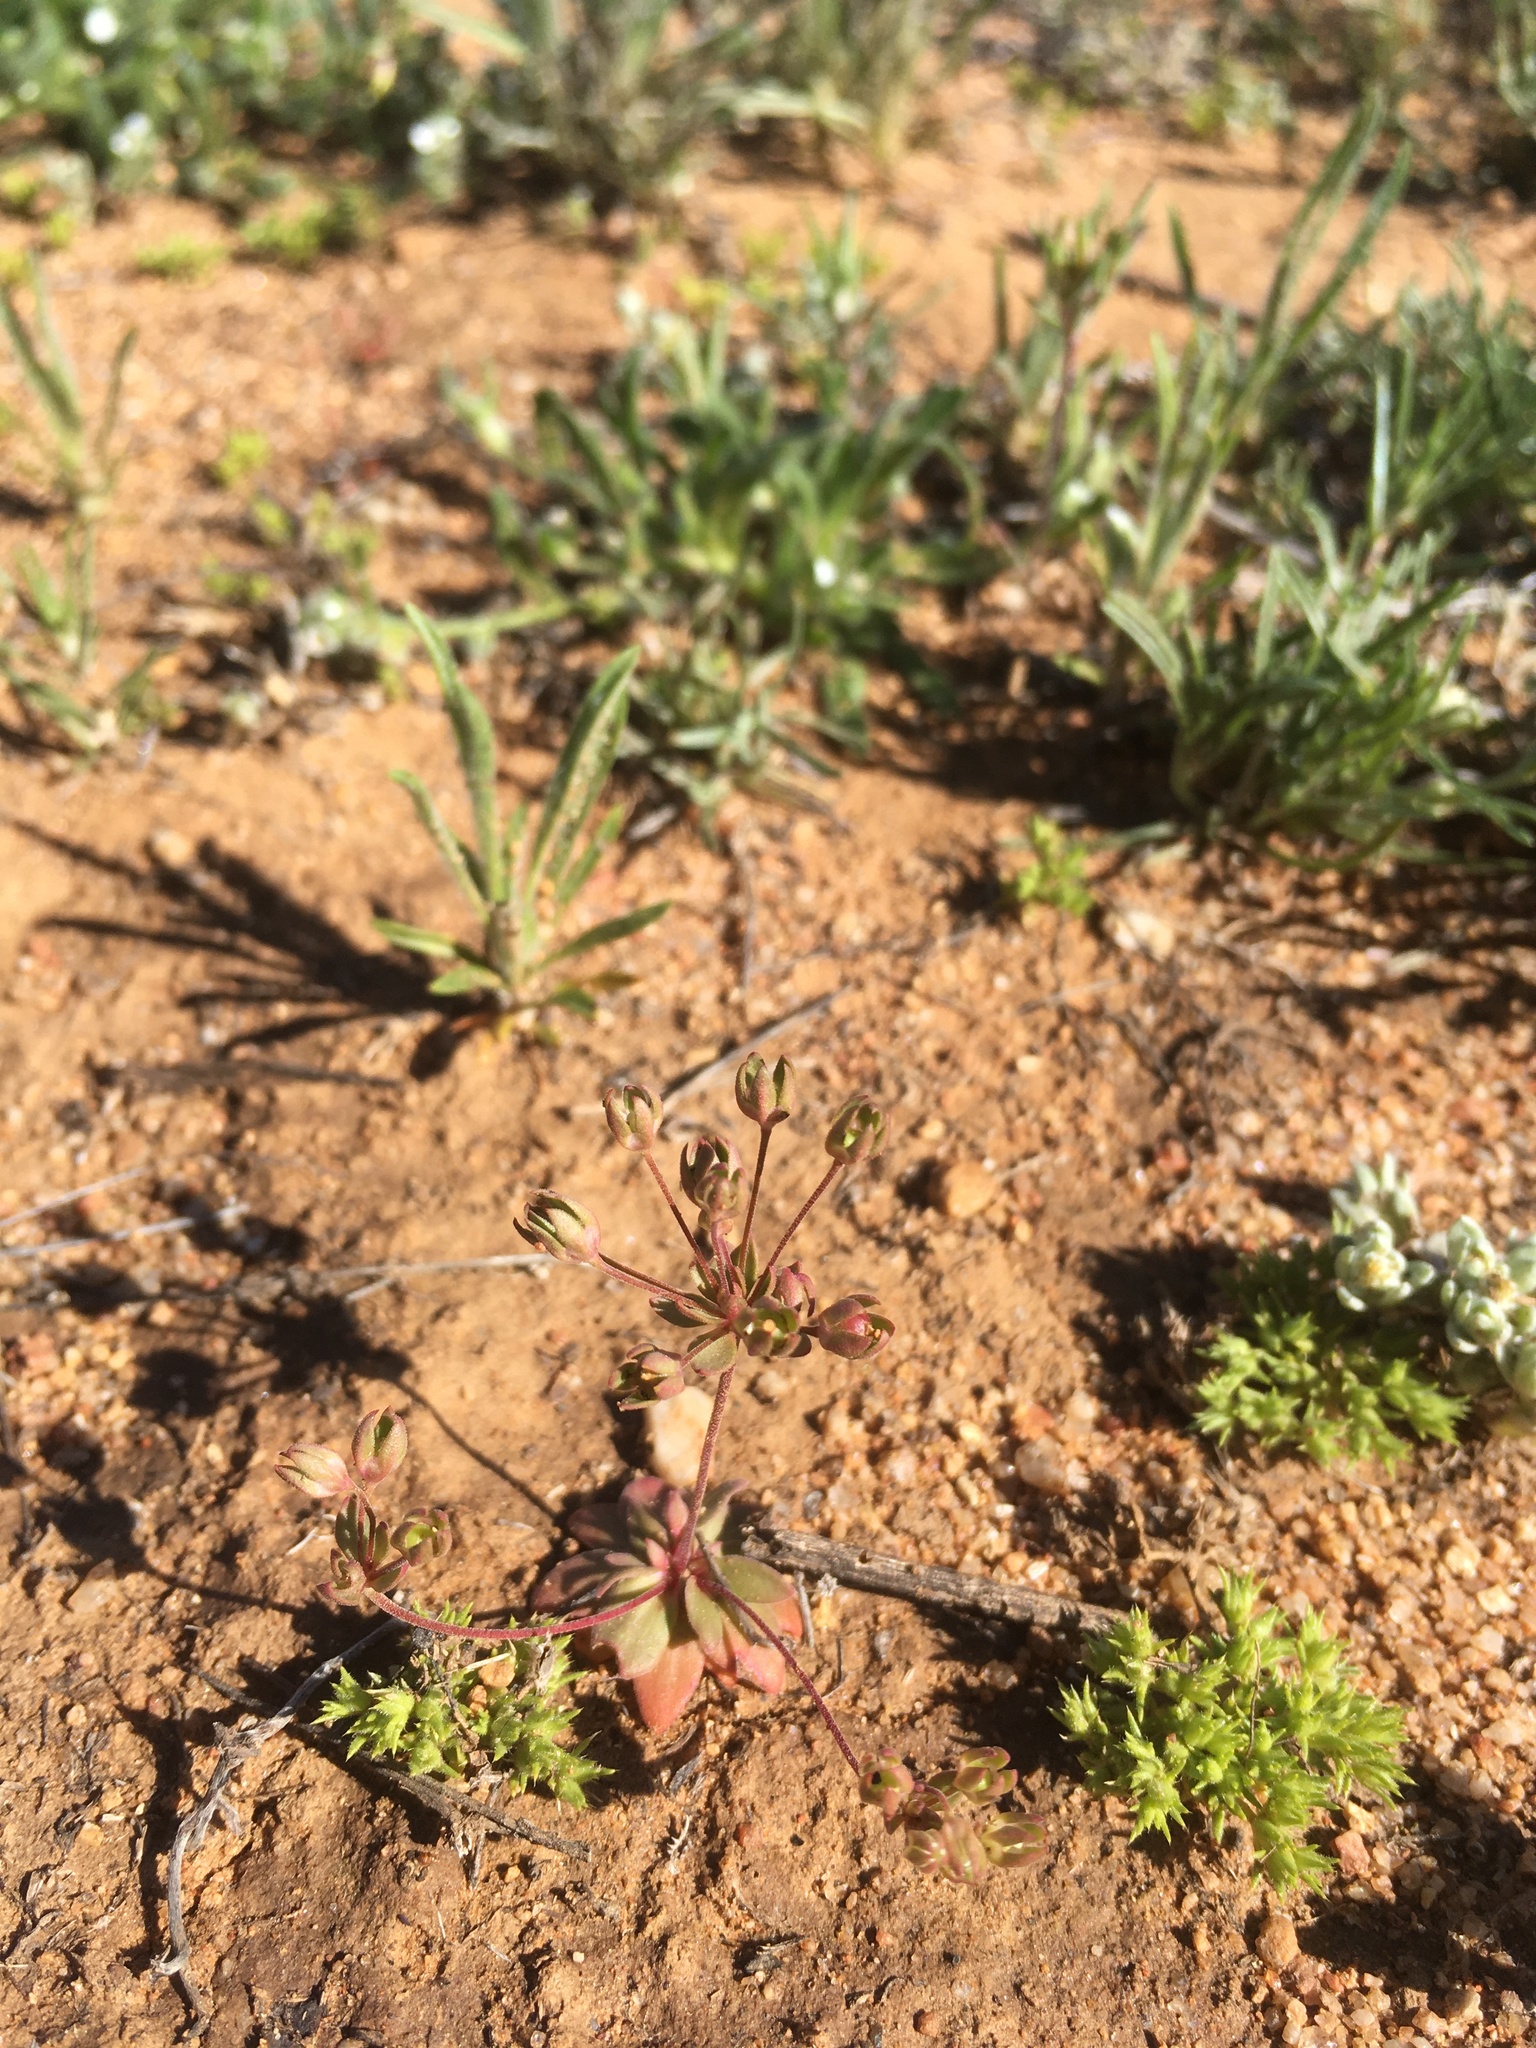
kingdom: Plantae
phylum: Tracheophyta
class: Magnoliopsida
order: Ericales
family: Primulaceae
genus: Androsace
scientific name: Androsace occidentalis
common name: West rock-jasmine
